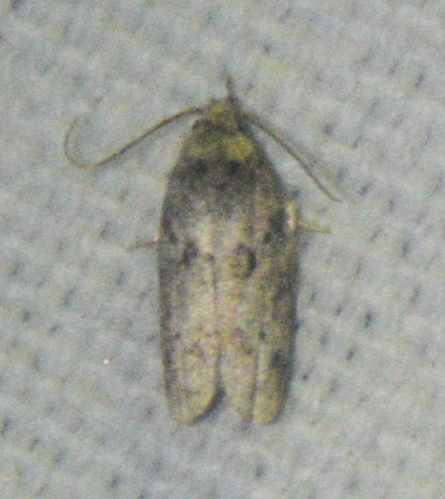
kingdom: Animalia
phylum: Arthropoda
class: Insecta
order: Lepidoptera
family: Depressariidae
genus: Antaeotricha
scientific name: Antaeotricha humilis
